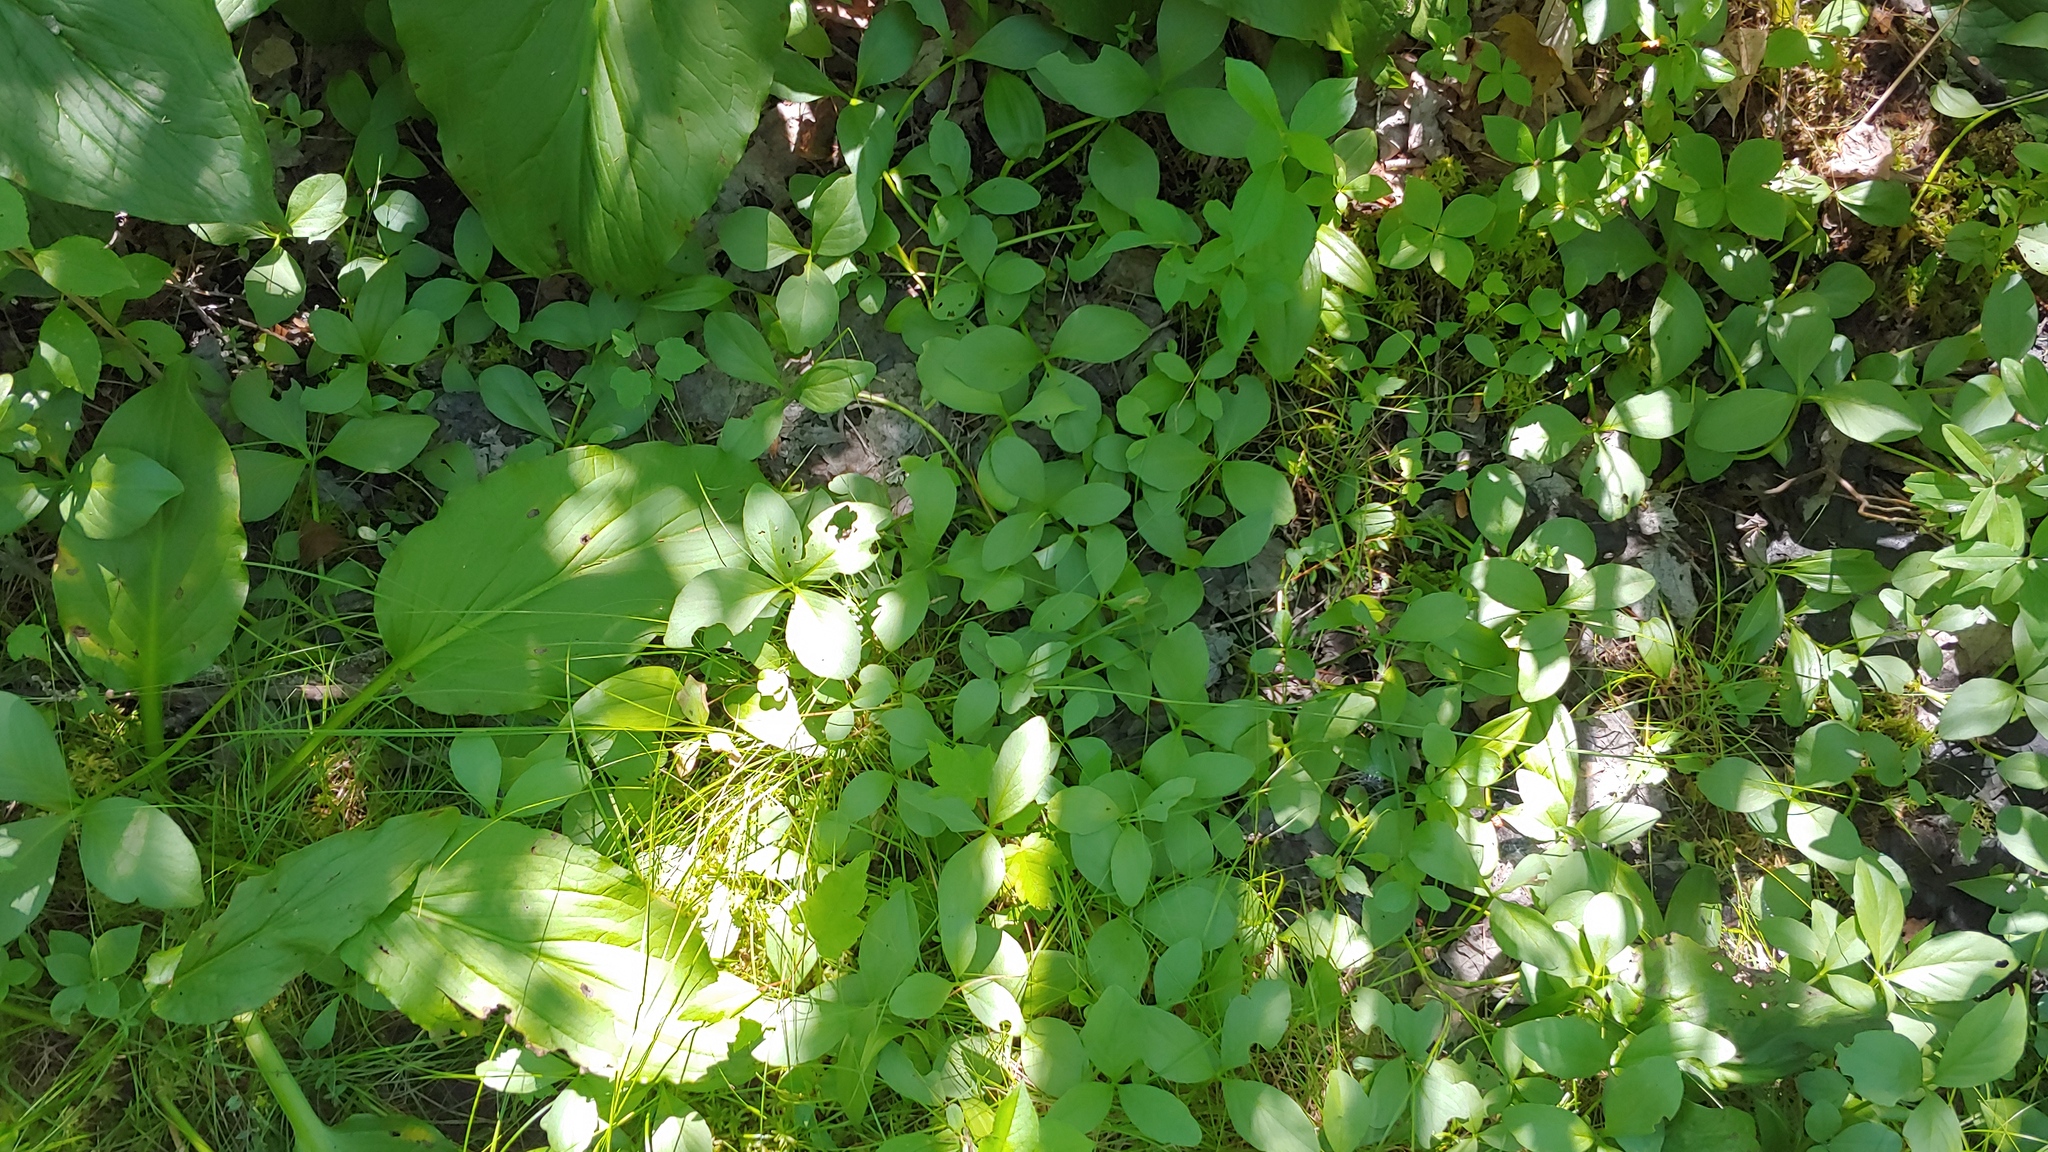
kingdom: Plantae
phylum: Tracheophyta
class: Magnoliopsida
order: Asterales
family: Menyanthaceae
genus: Menyanthes
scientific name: Menyanthes trifoliata
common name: Bogbean
